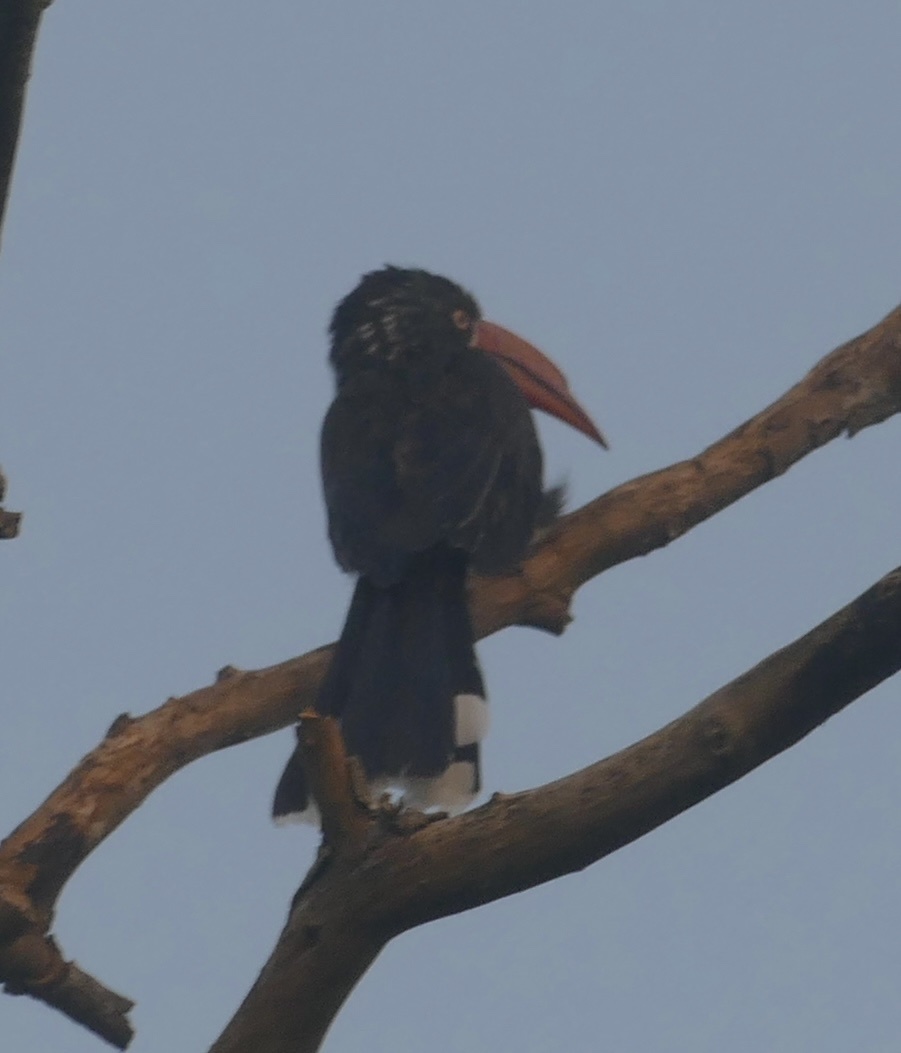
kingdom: Animalia
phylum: Chordata
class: Aves
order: Bucerotiformes
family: Bucerotidae
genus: Lophoceros
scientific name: Lophoceros alboterminatus
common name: Crowned hornbill
